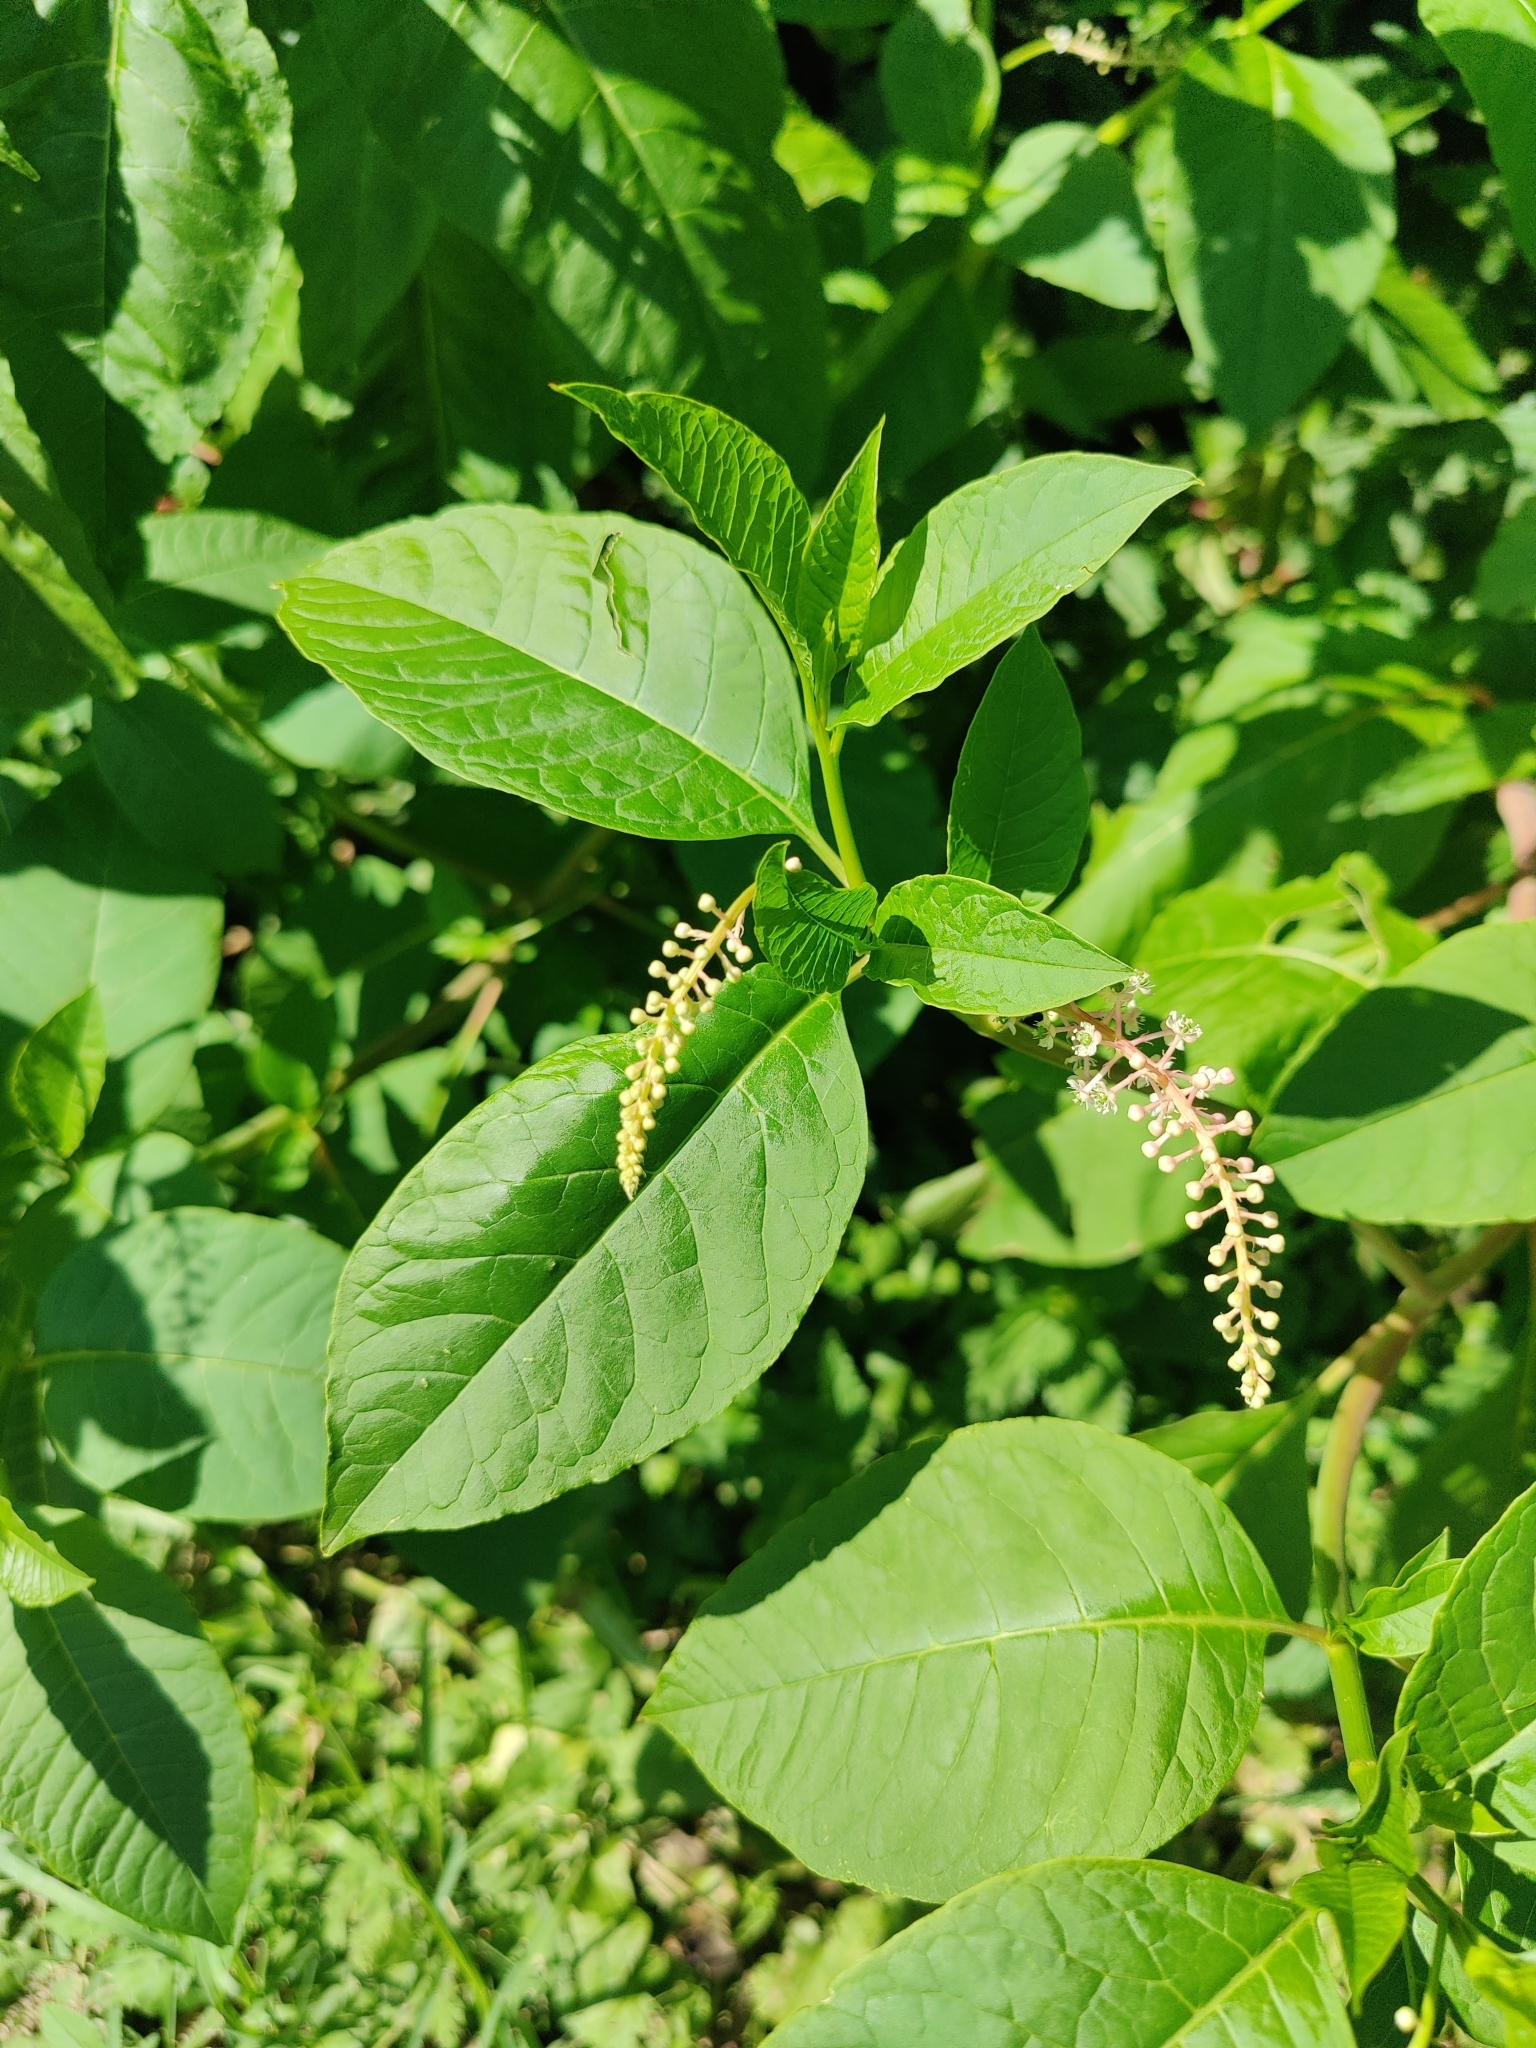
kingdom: Plantae
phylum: Tracheophyta
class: Magnoliopsida
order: Caryophyllales
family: Phytolaccaceae
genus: Phytolacca
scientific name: Phytolacca americana
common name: American pokeweed
